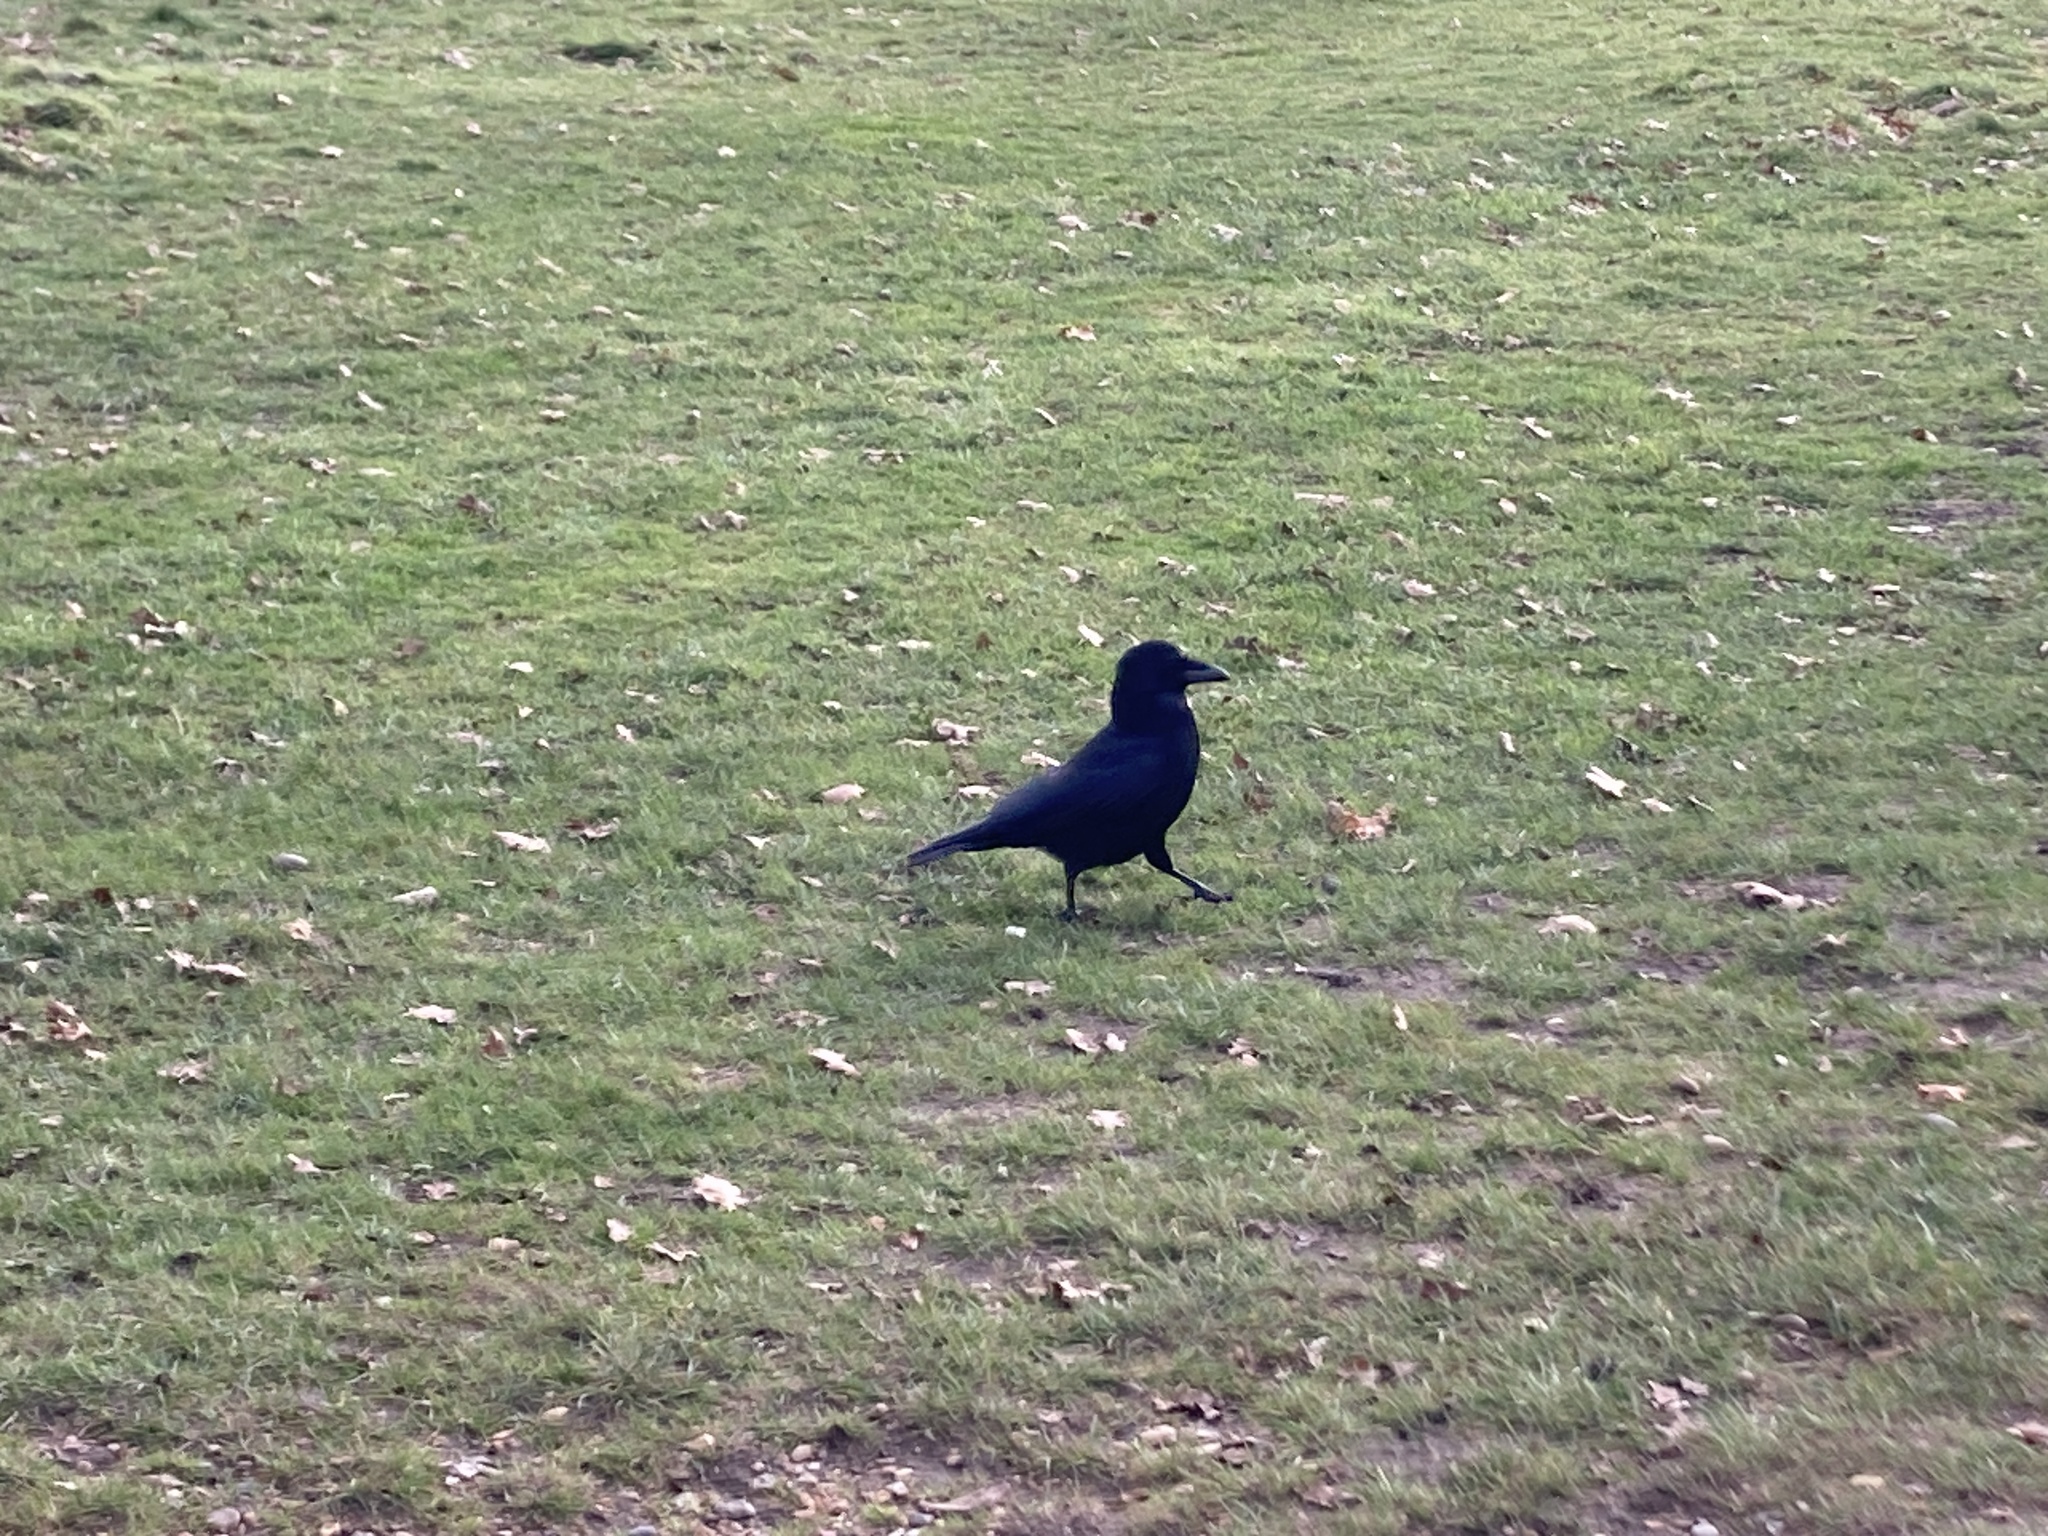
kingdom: Animalia
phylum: Chordata
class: Aves
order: Passeriformes
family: Corvidae
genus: Corvus
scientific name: Corvus corone
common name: Carrion crow
